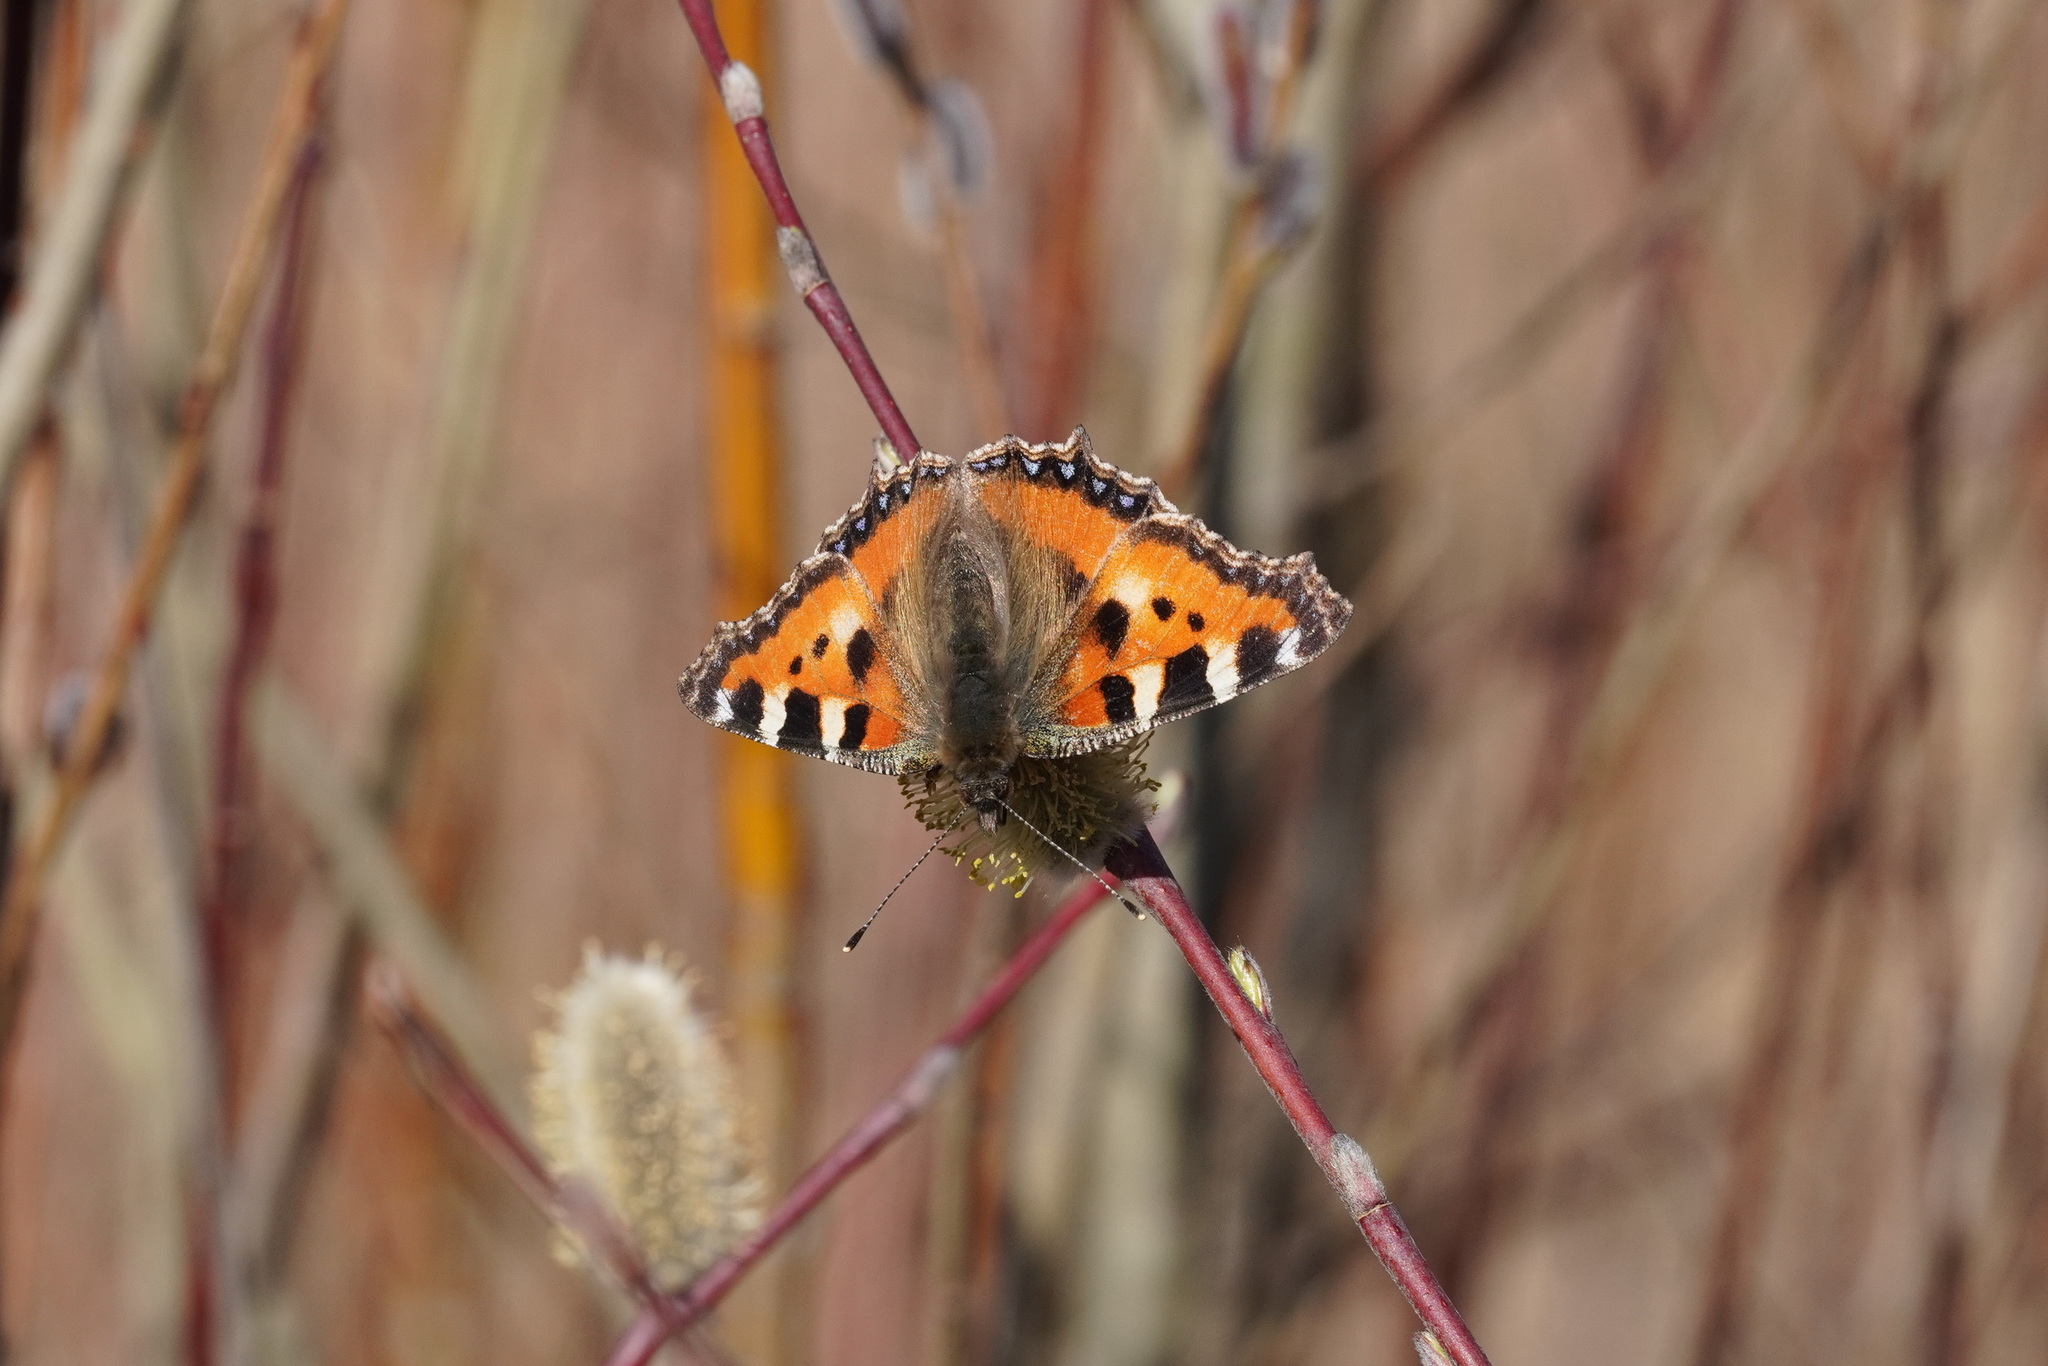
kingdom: Animalia
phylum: Arthropoda
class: Insecta
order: Lepidoptera
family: Nymphalidae
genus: Aglais
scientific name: Aglais urticae
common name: Small tortoiseshell
